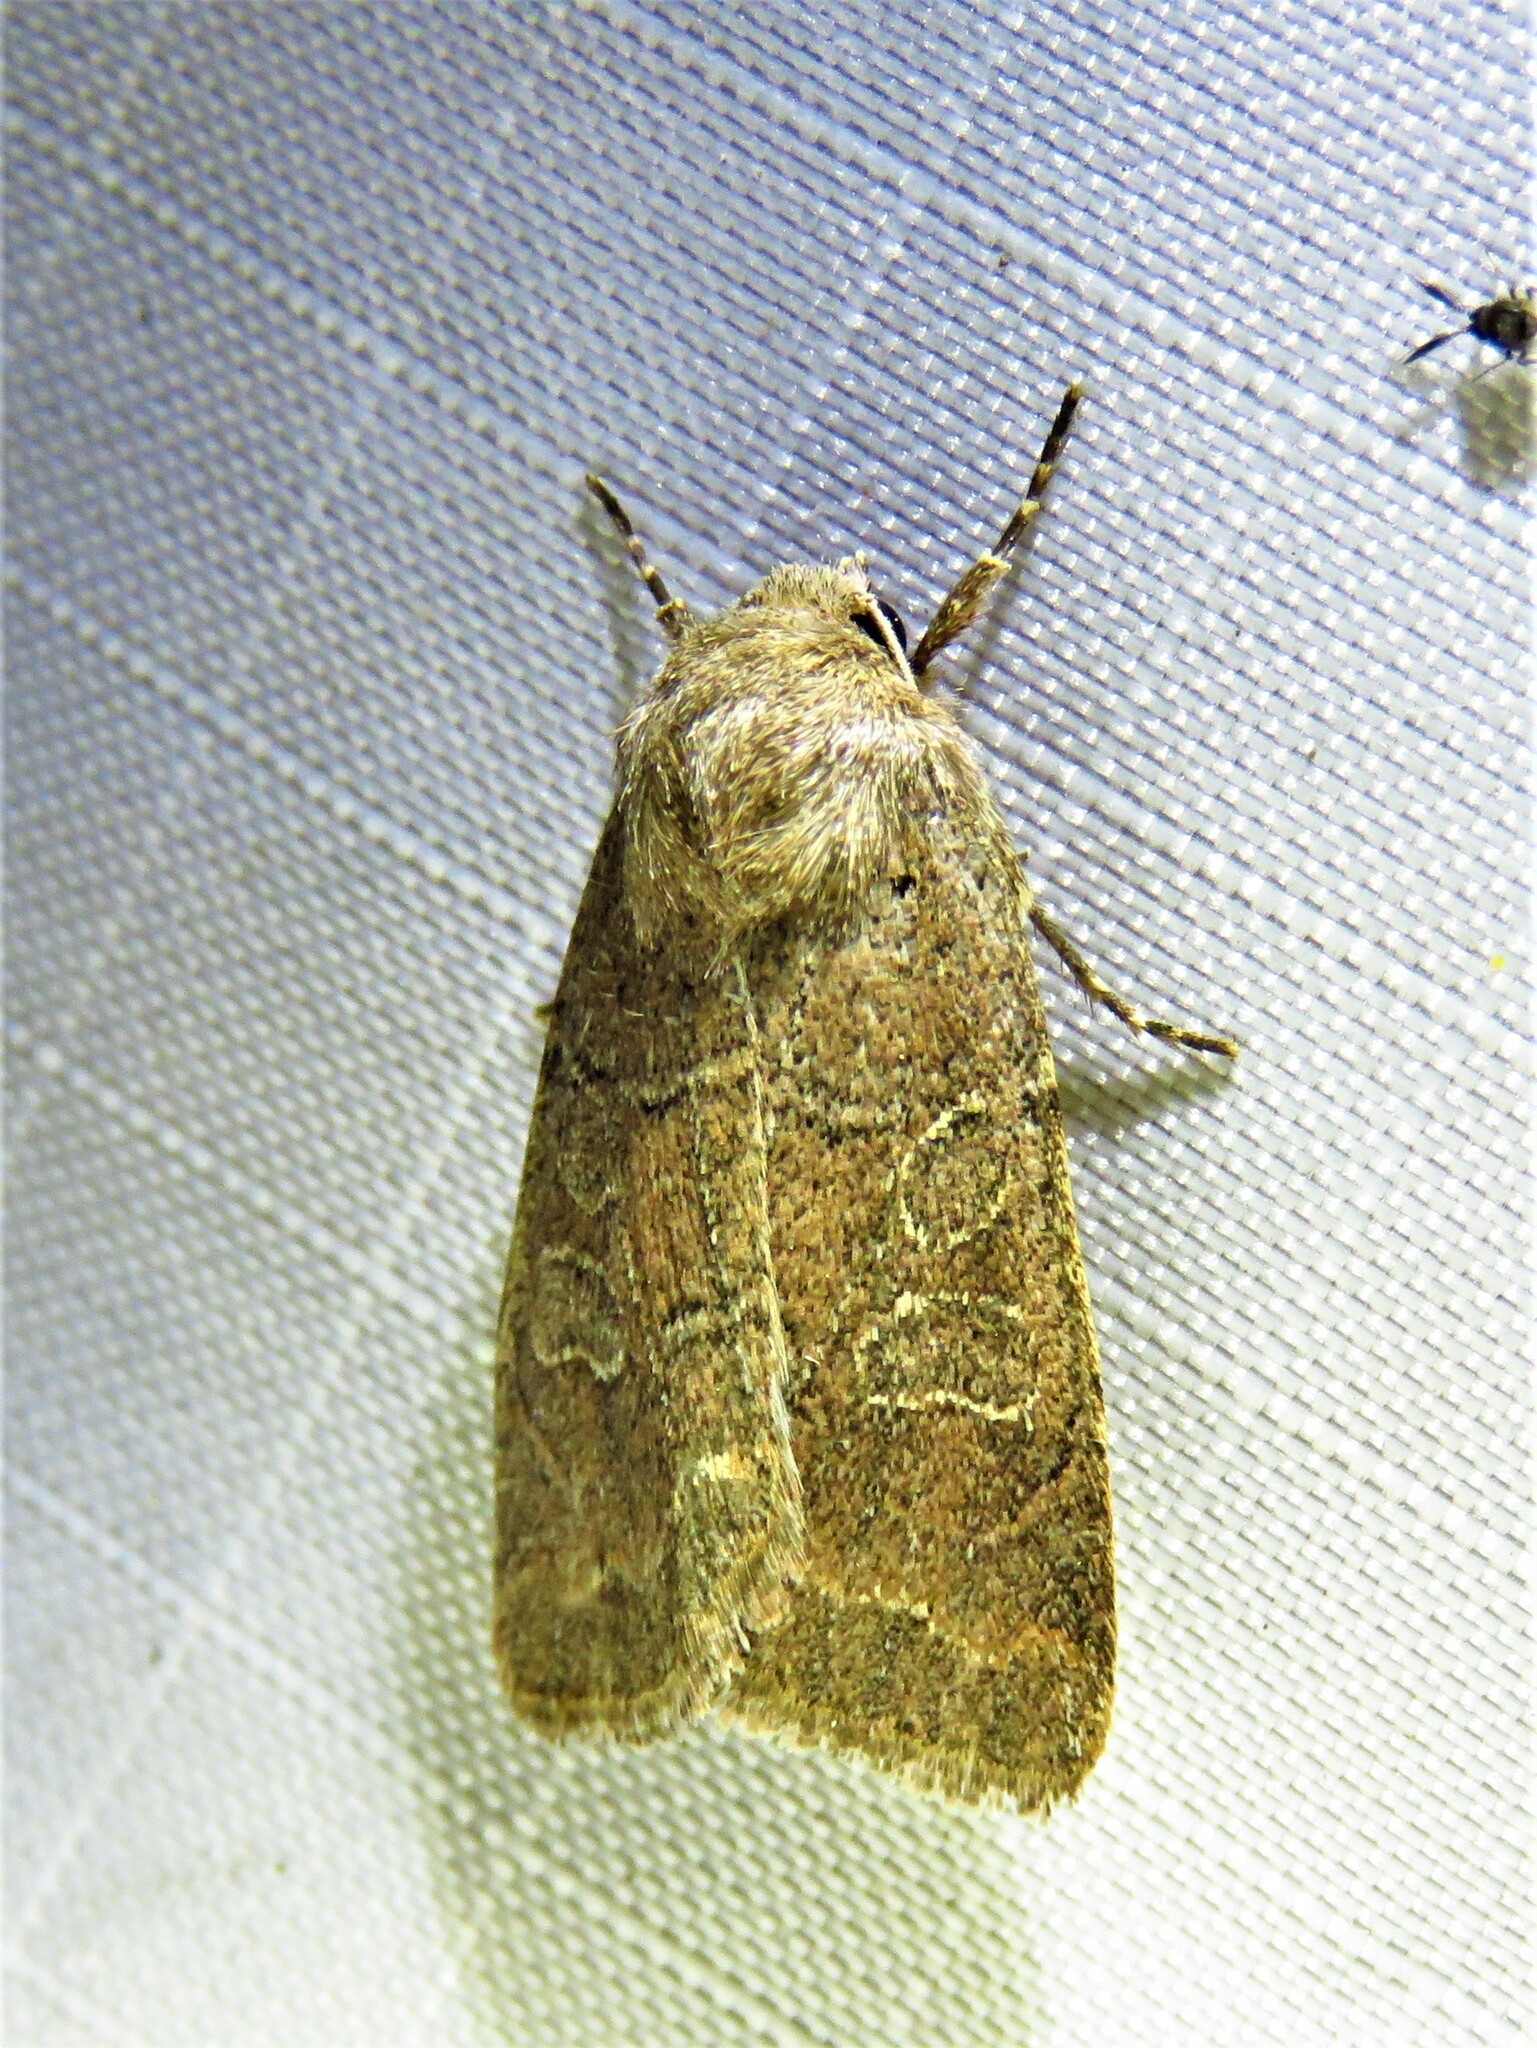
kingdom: Animalia
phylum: Arthropoda
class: Insecta
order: Lepidoptera
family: Noctuidae
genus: Kocakina
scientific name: Kocakina fidelis
